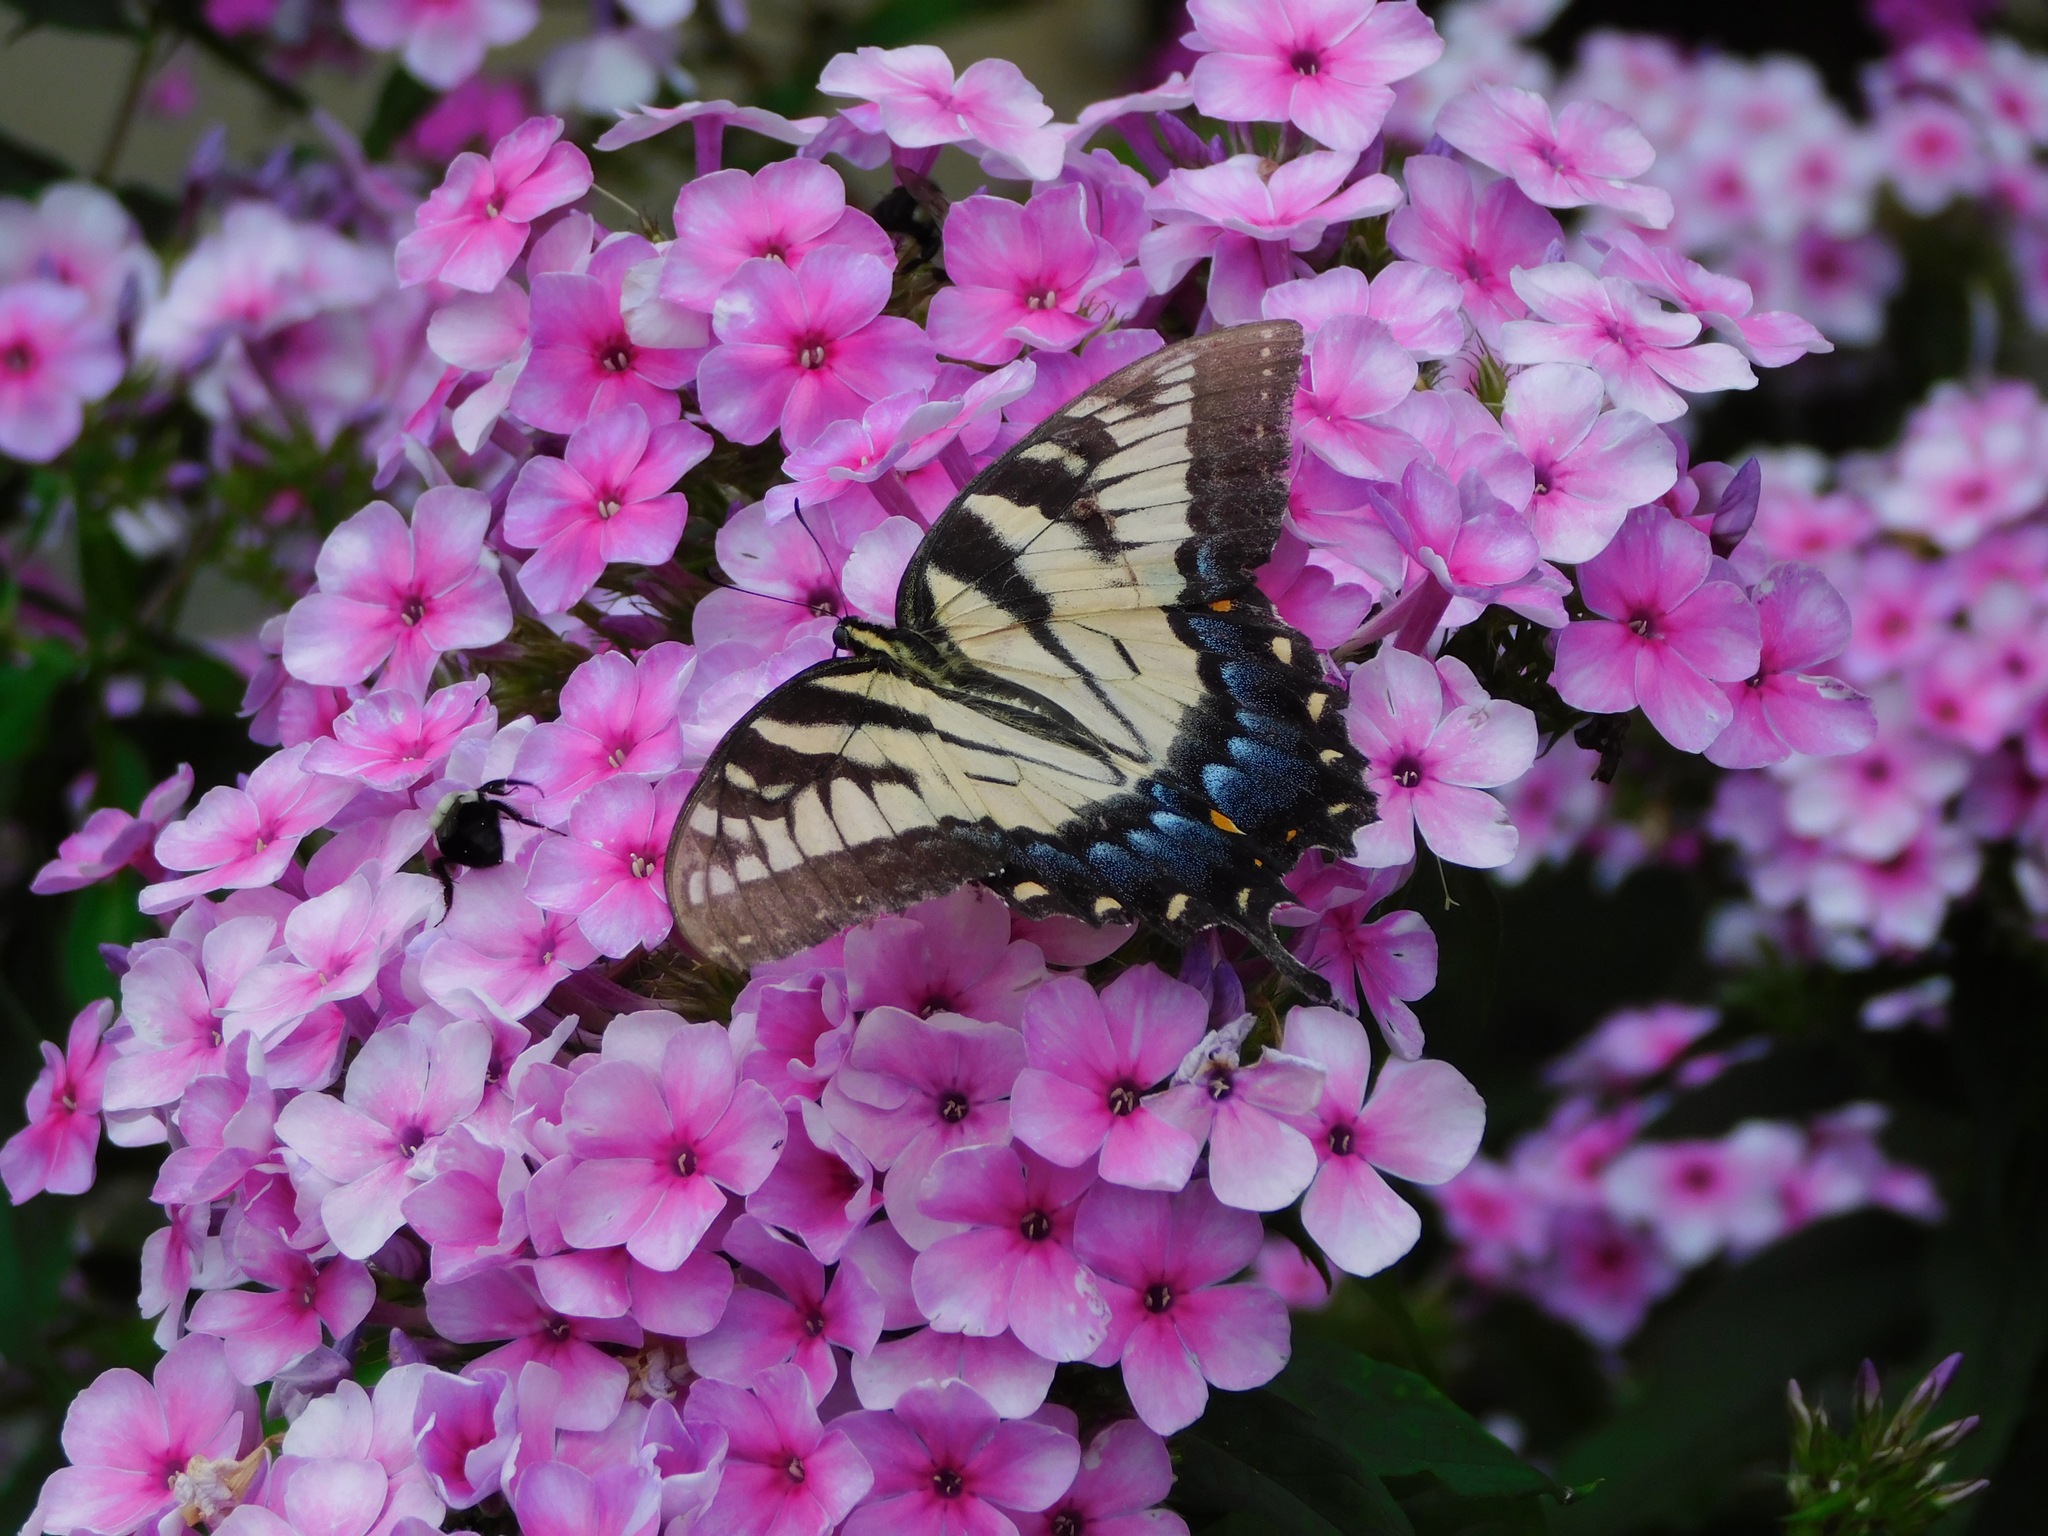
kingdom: Animalia
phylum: Arthropoda
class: Insecta
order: Lepidoptera
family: Papilionidae
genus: Papilio
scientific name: Papilio glaucus
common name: Tiger swallowtail
